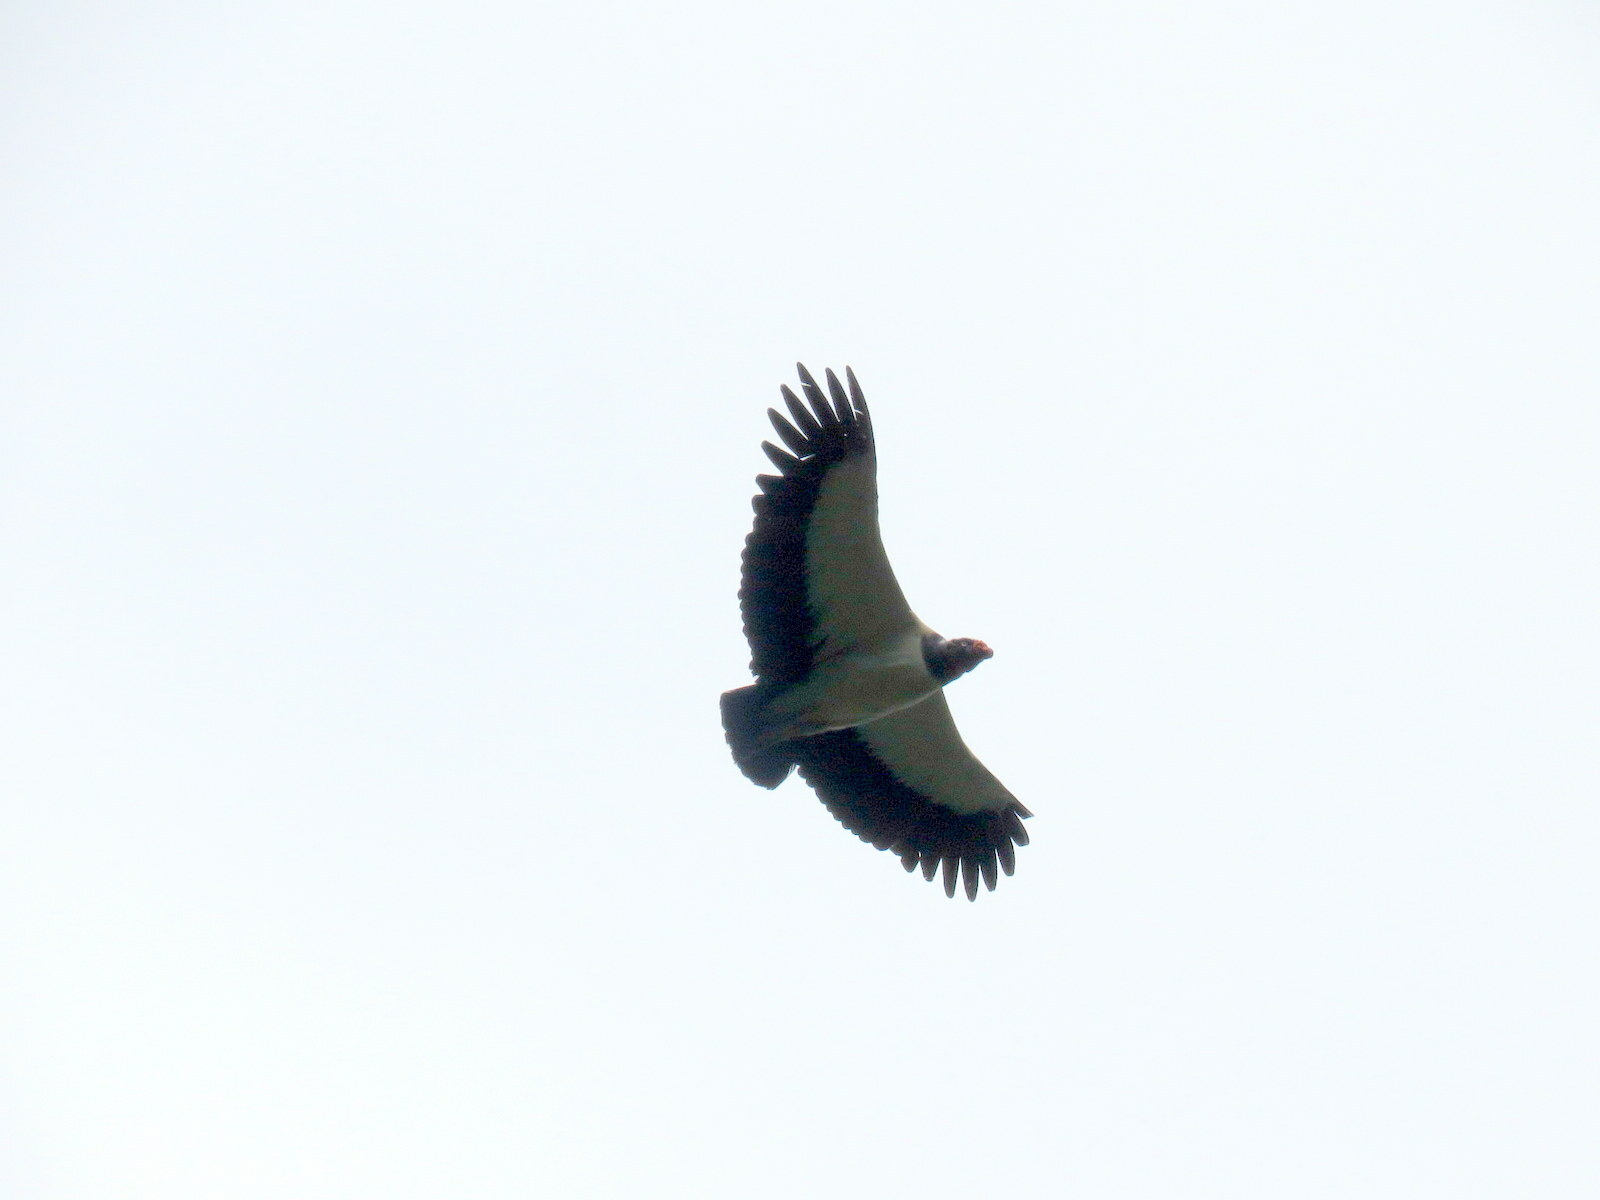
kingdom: Animalia
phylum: Chordata
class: Aves
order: Accipitriformes
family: Cathartidae
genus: Sarcoramphus
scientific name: Sarcoramphus papa
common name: King vulture
